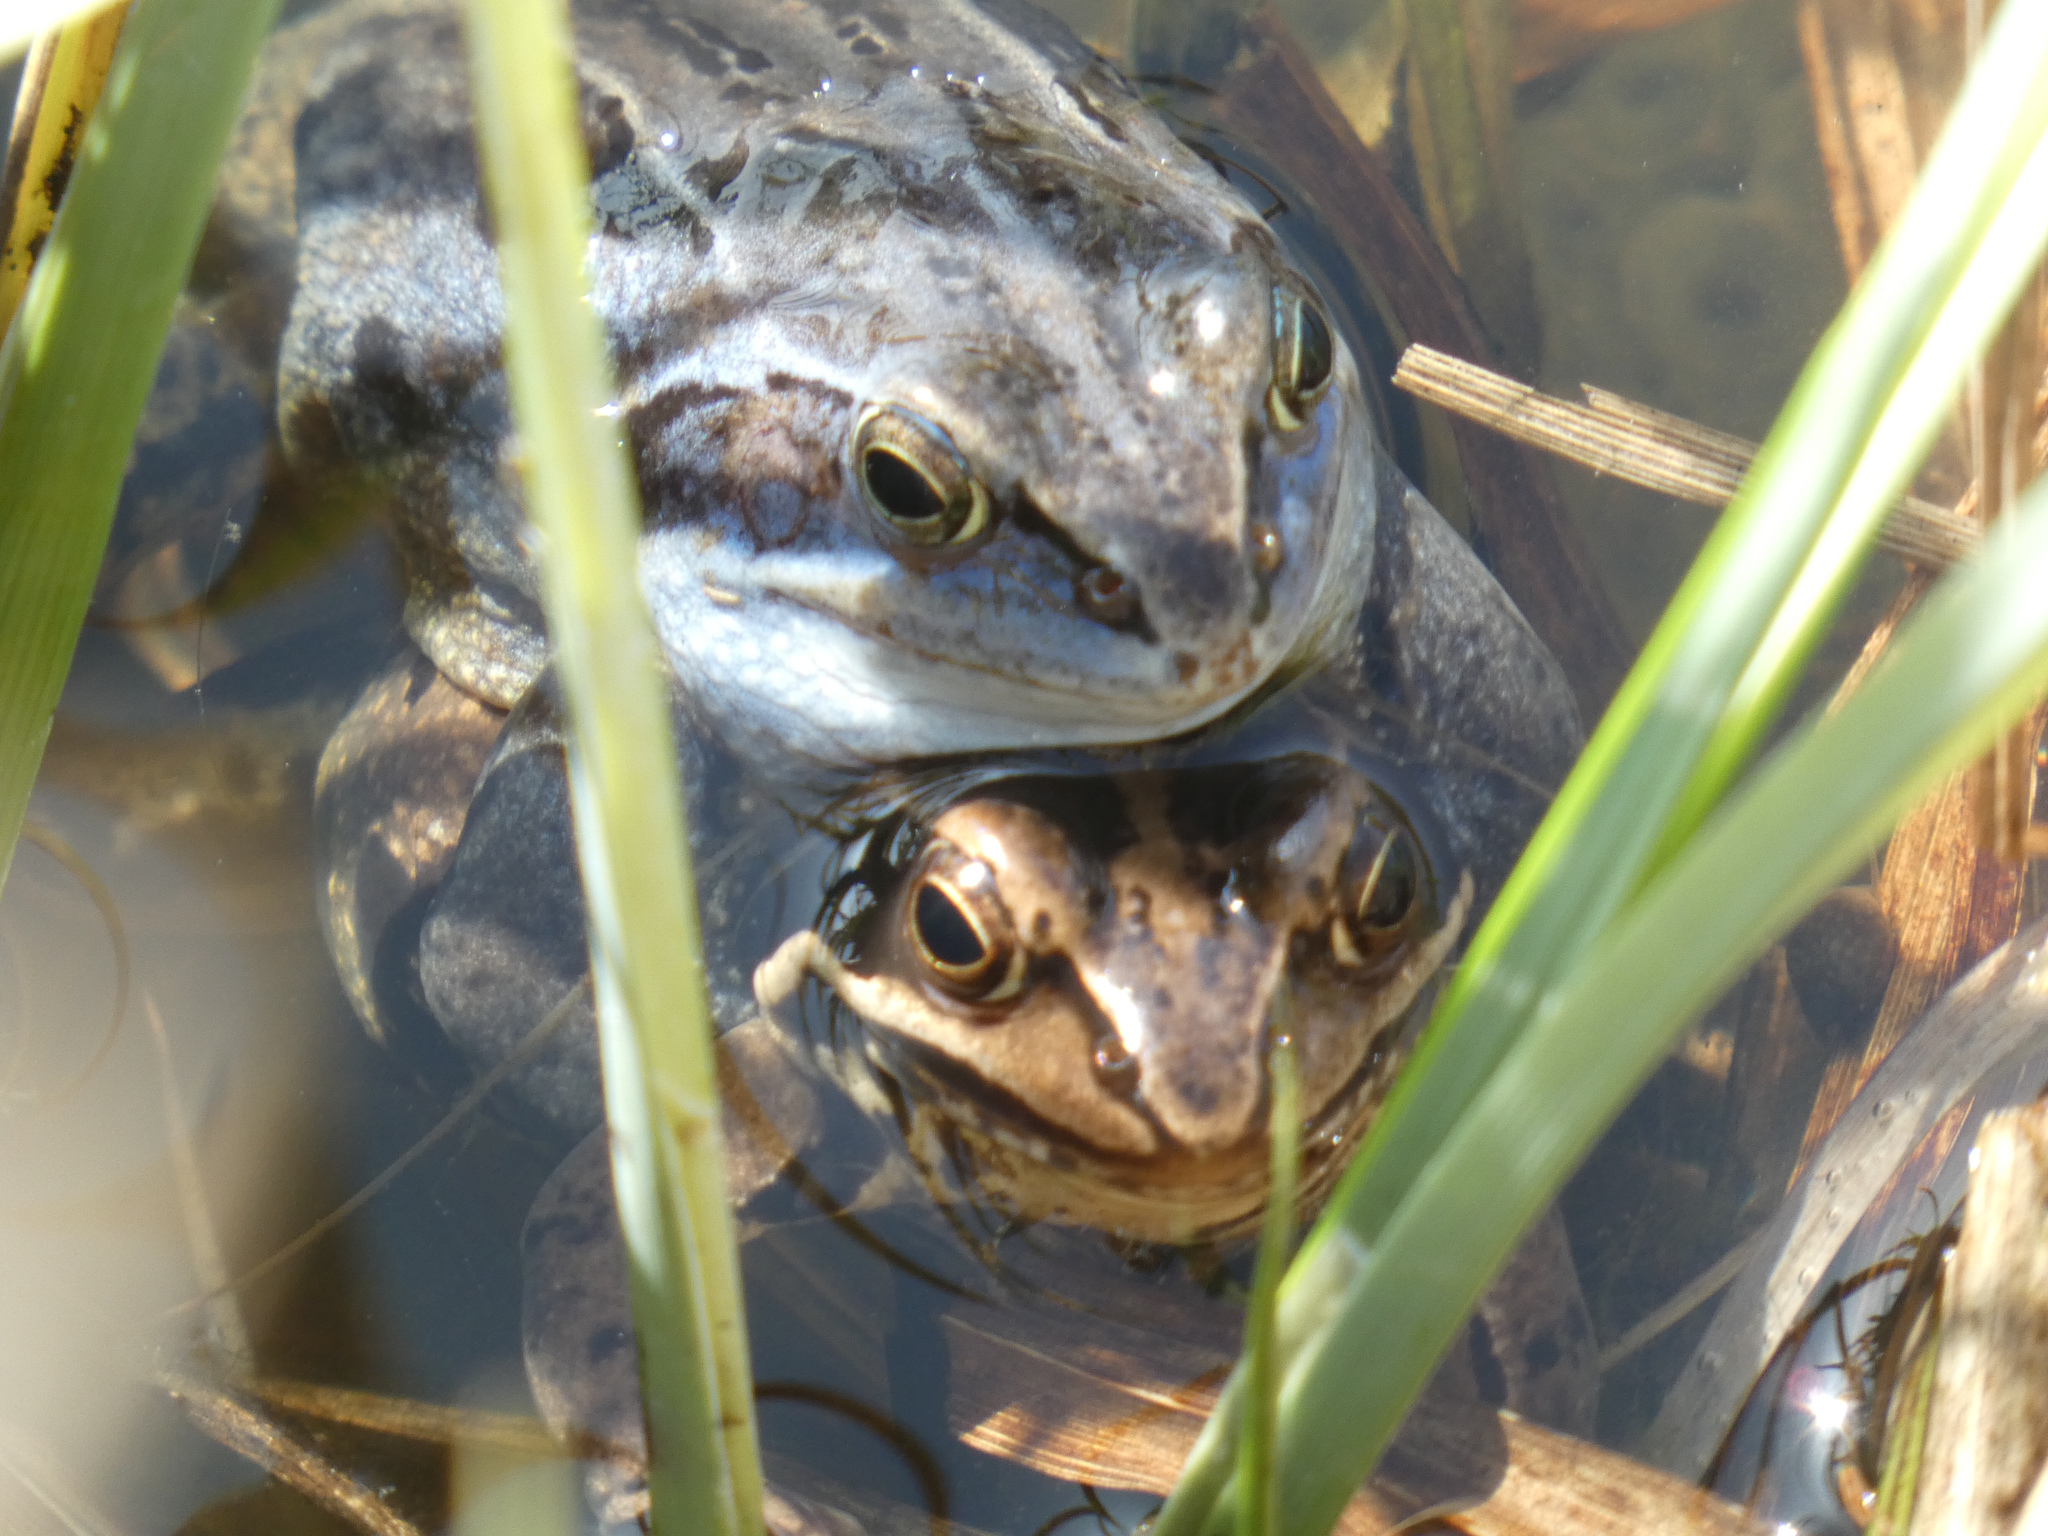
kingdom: Animalia
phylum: Chordata
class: Amphibia
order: Anura
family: Ranidae
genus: Rana
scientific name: Rana arvalis
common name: Moor frog
